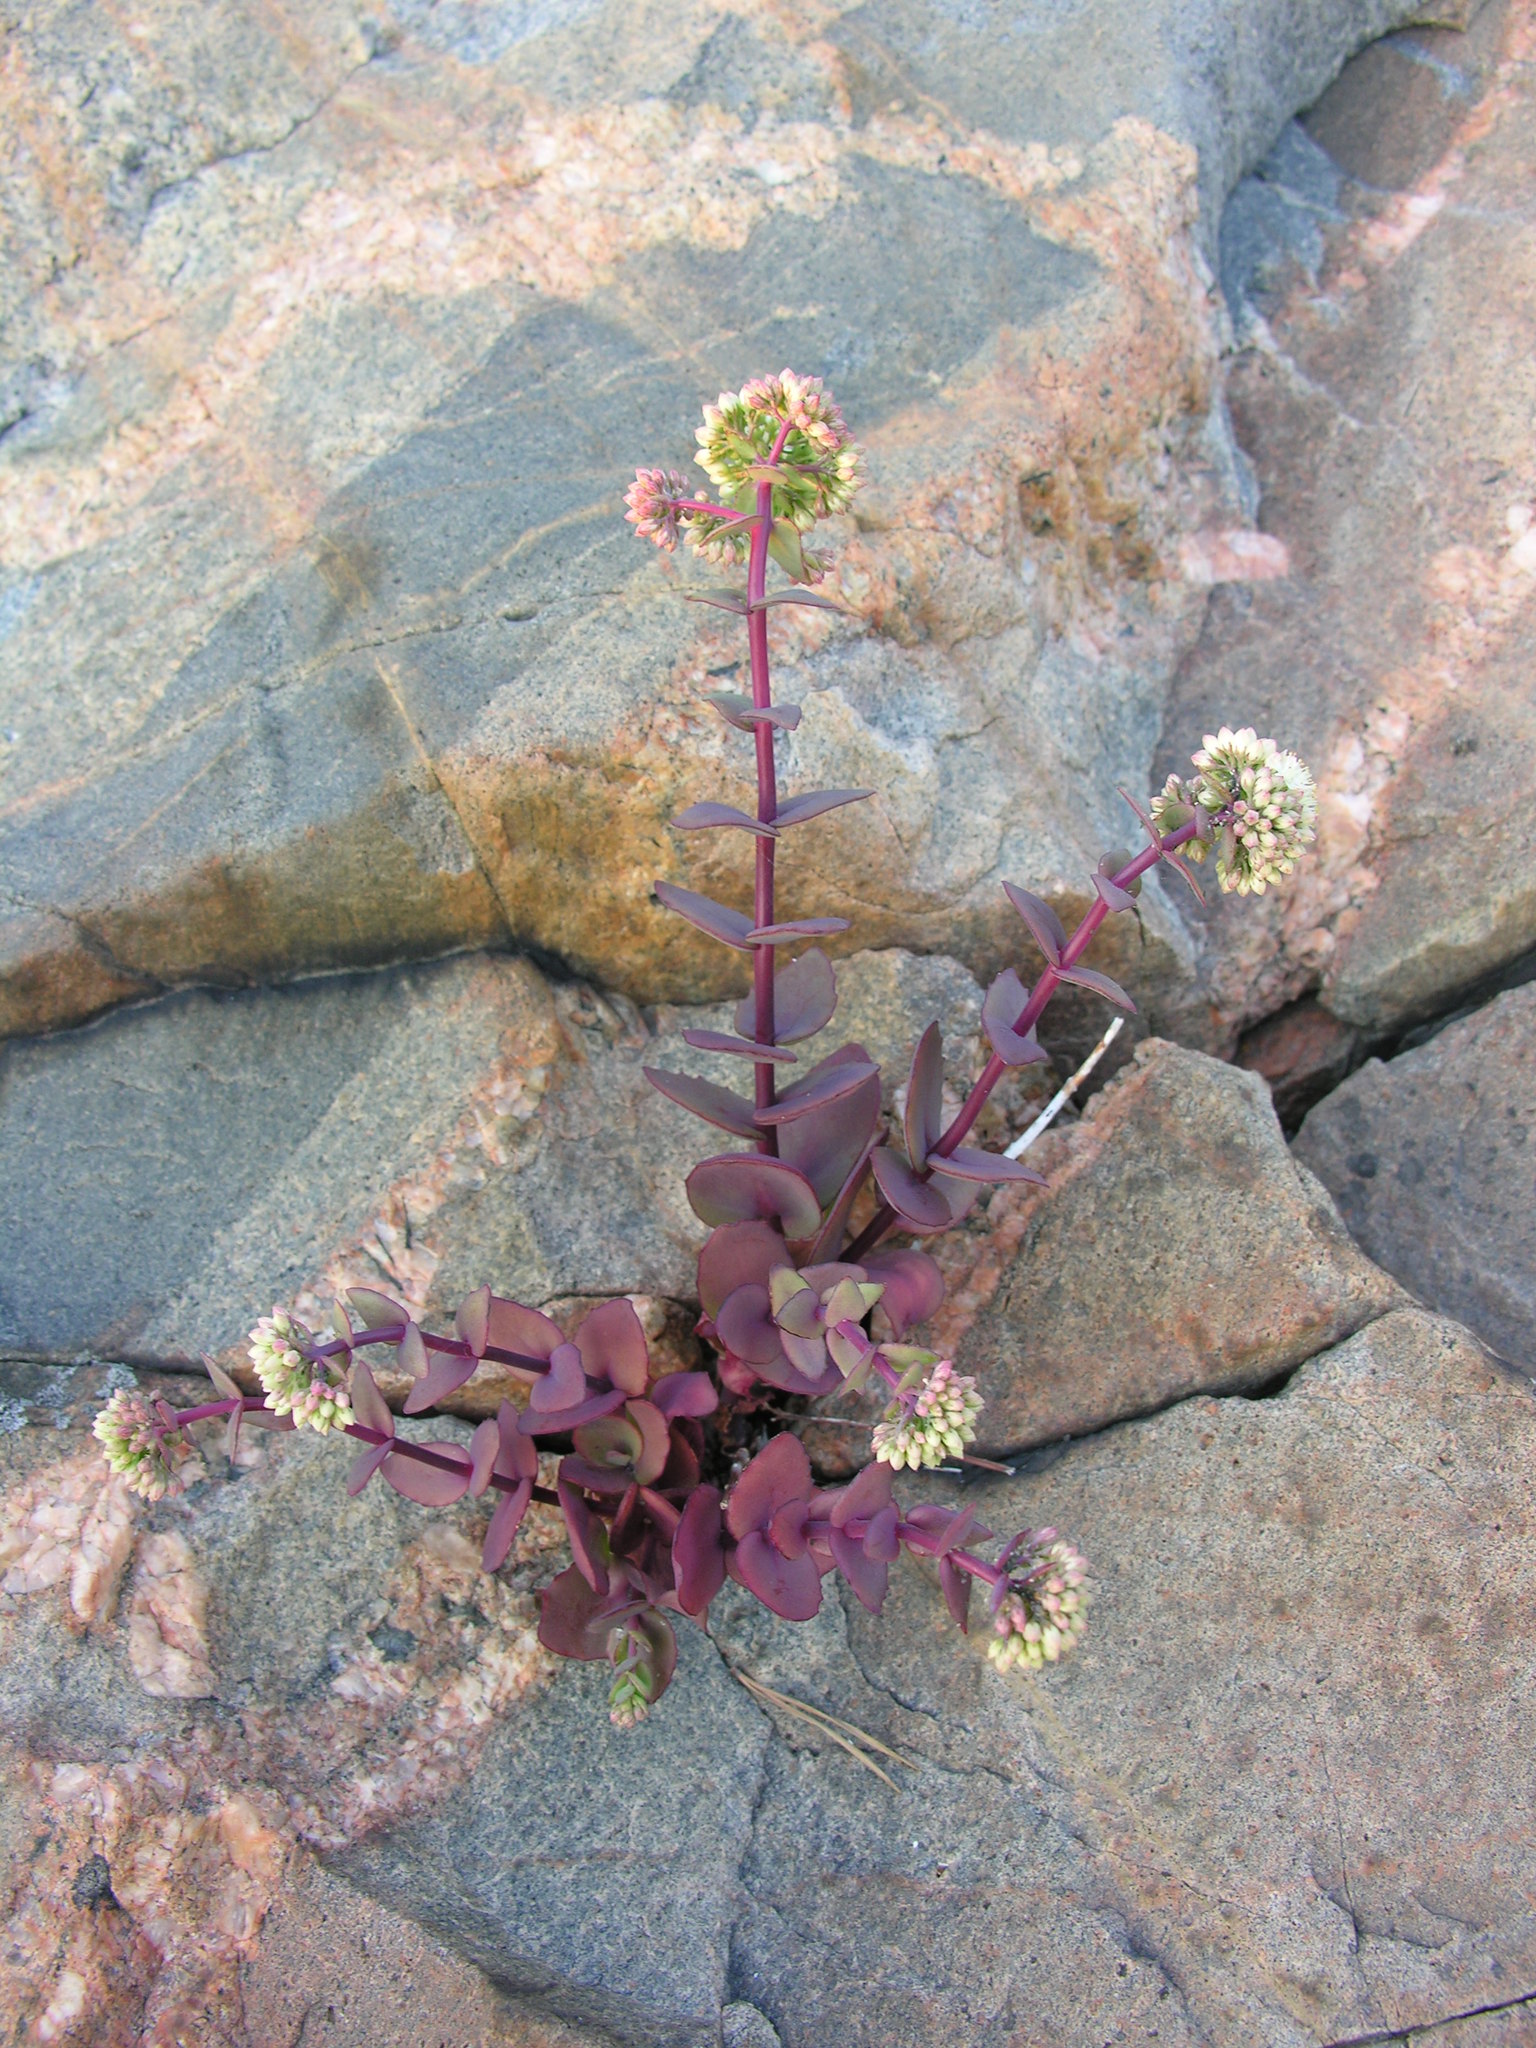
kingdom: Plantae
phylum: Tracheophyta
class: Magnoliopsida
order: Saxifragales
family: Crassulaceae
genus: Hylotelephium
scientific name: Hylotelephium maximum
